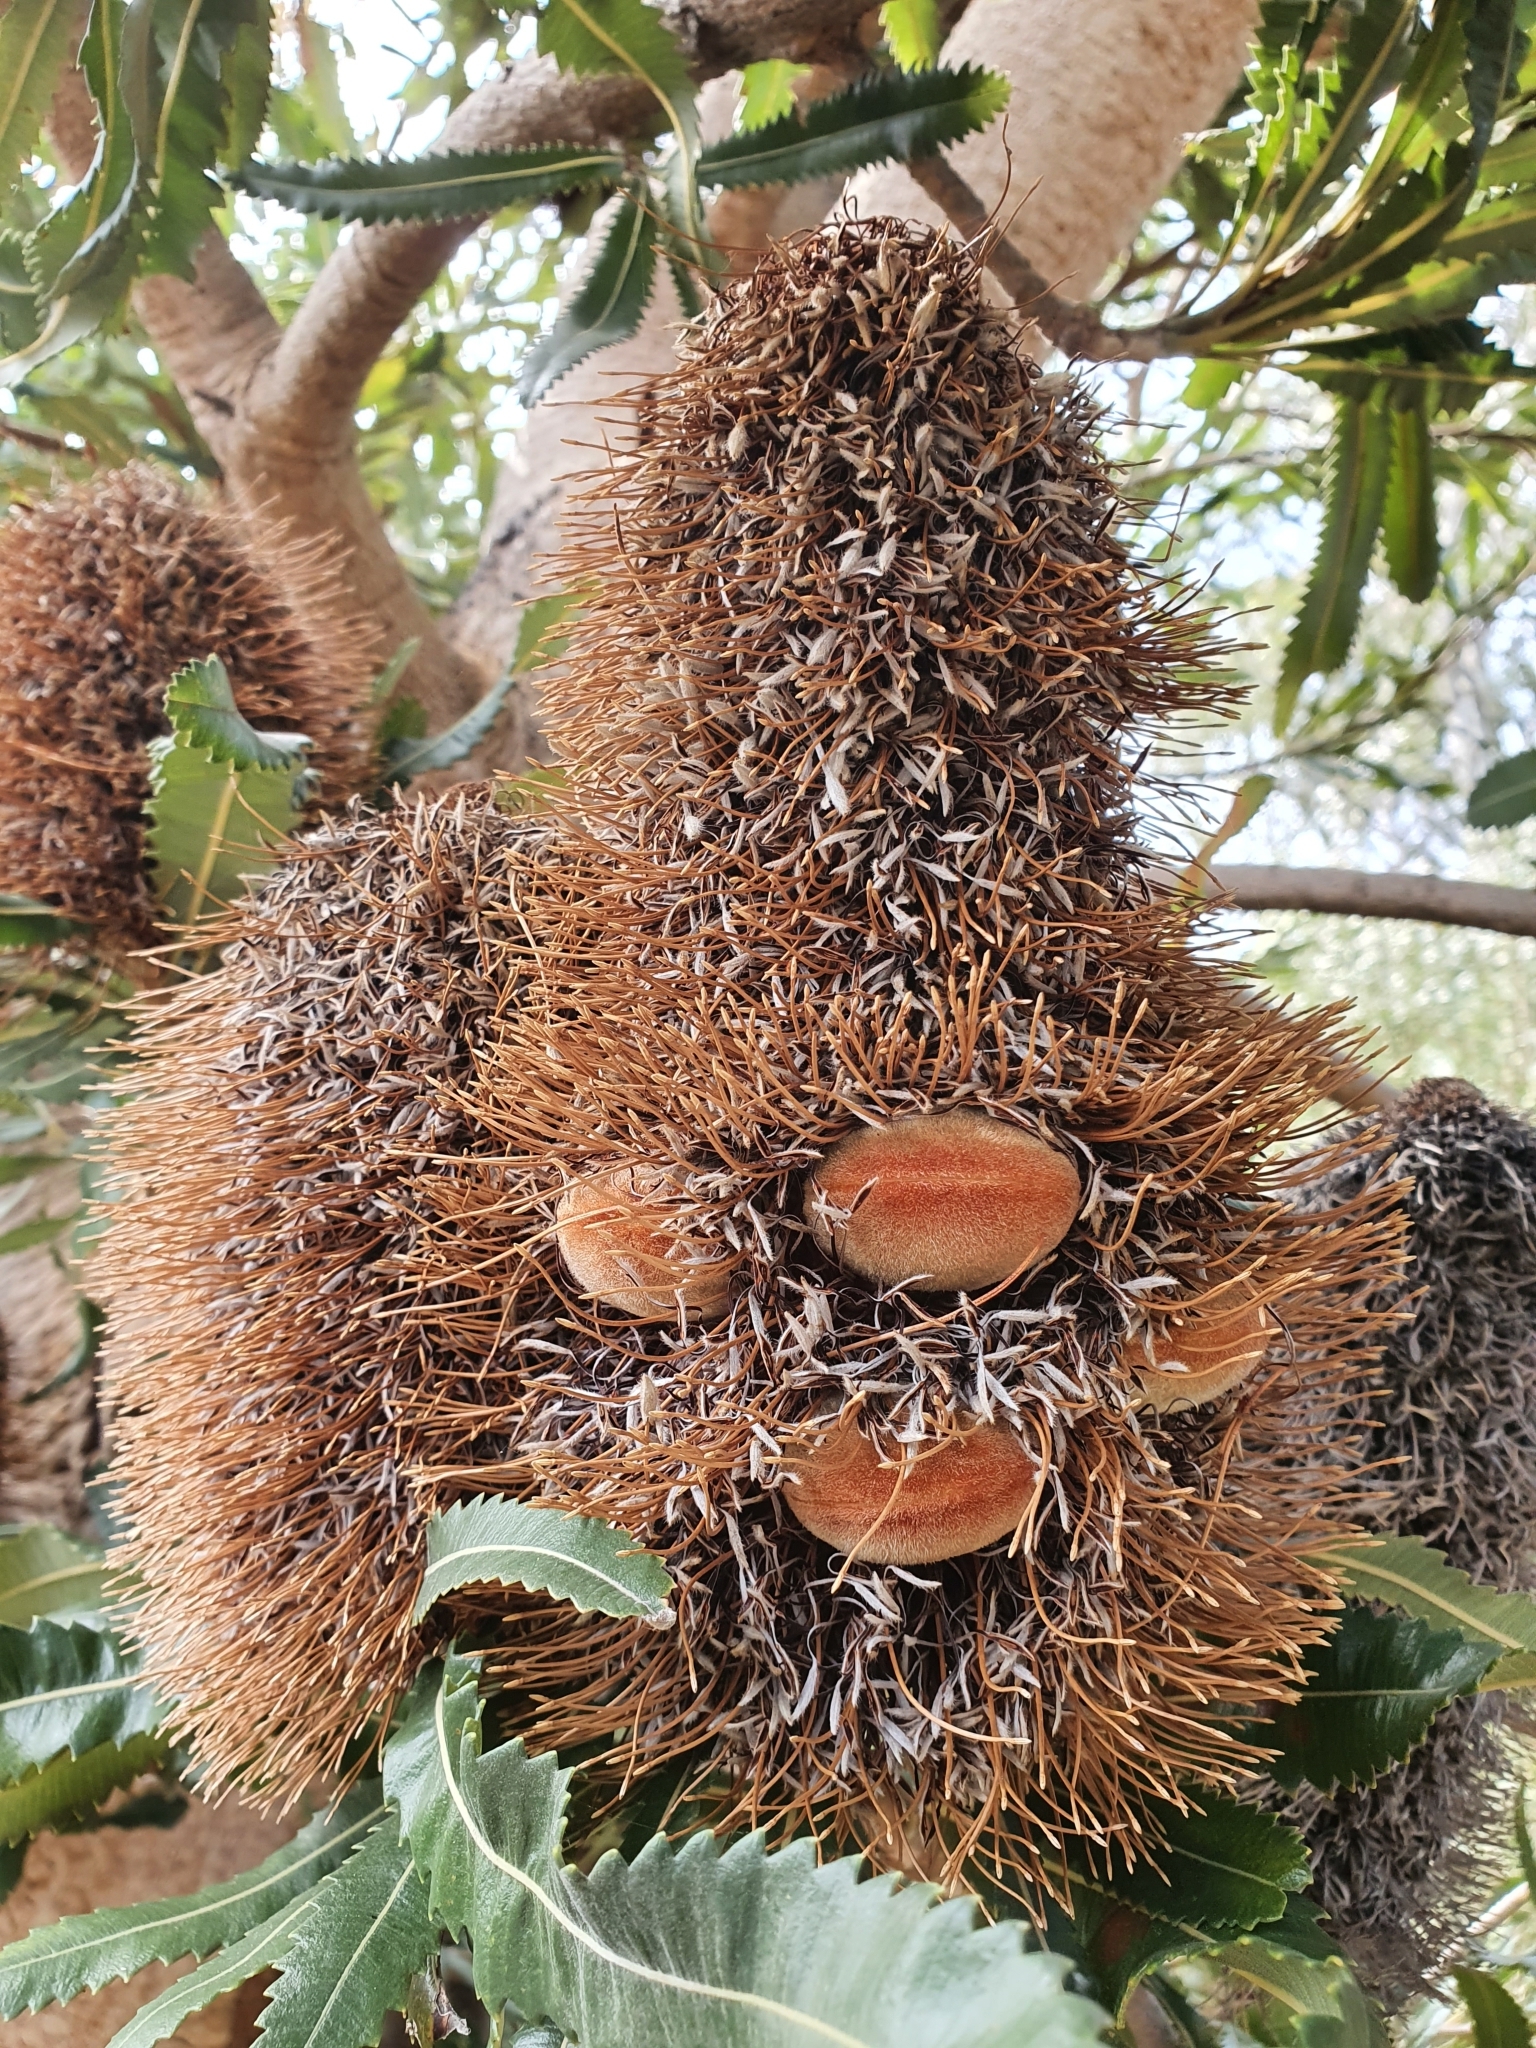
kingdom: Plantae
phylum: Tracheophyta
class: Magnoliopsida
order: Proteales
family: Proteaceae
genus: Banksia
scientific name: Banksia serrata
